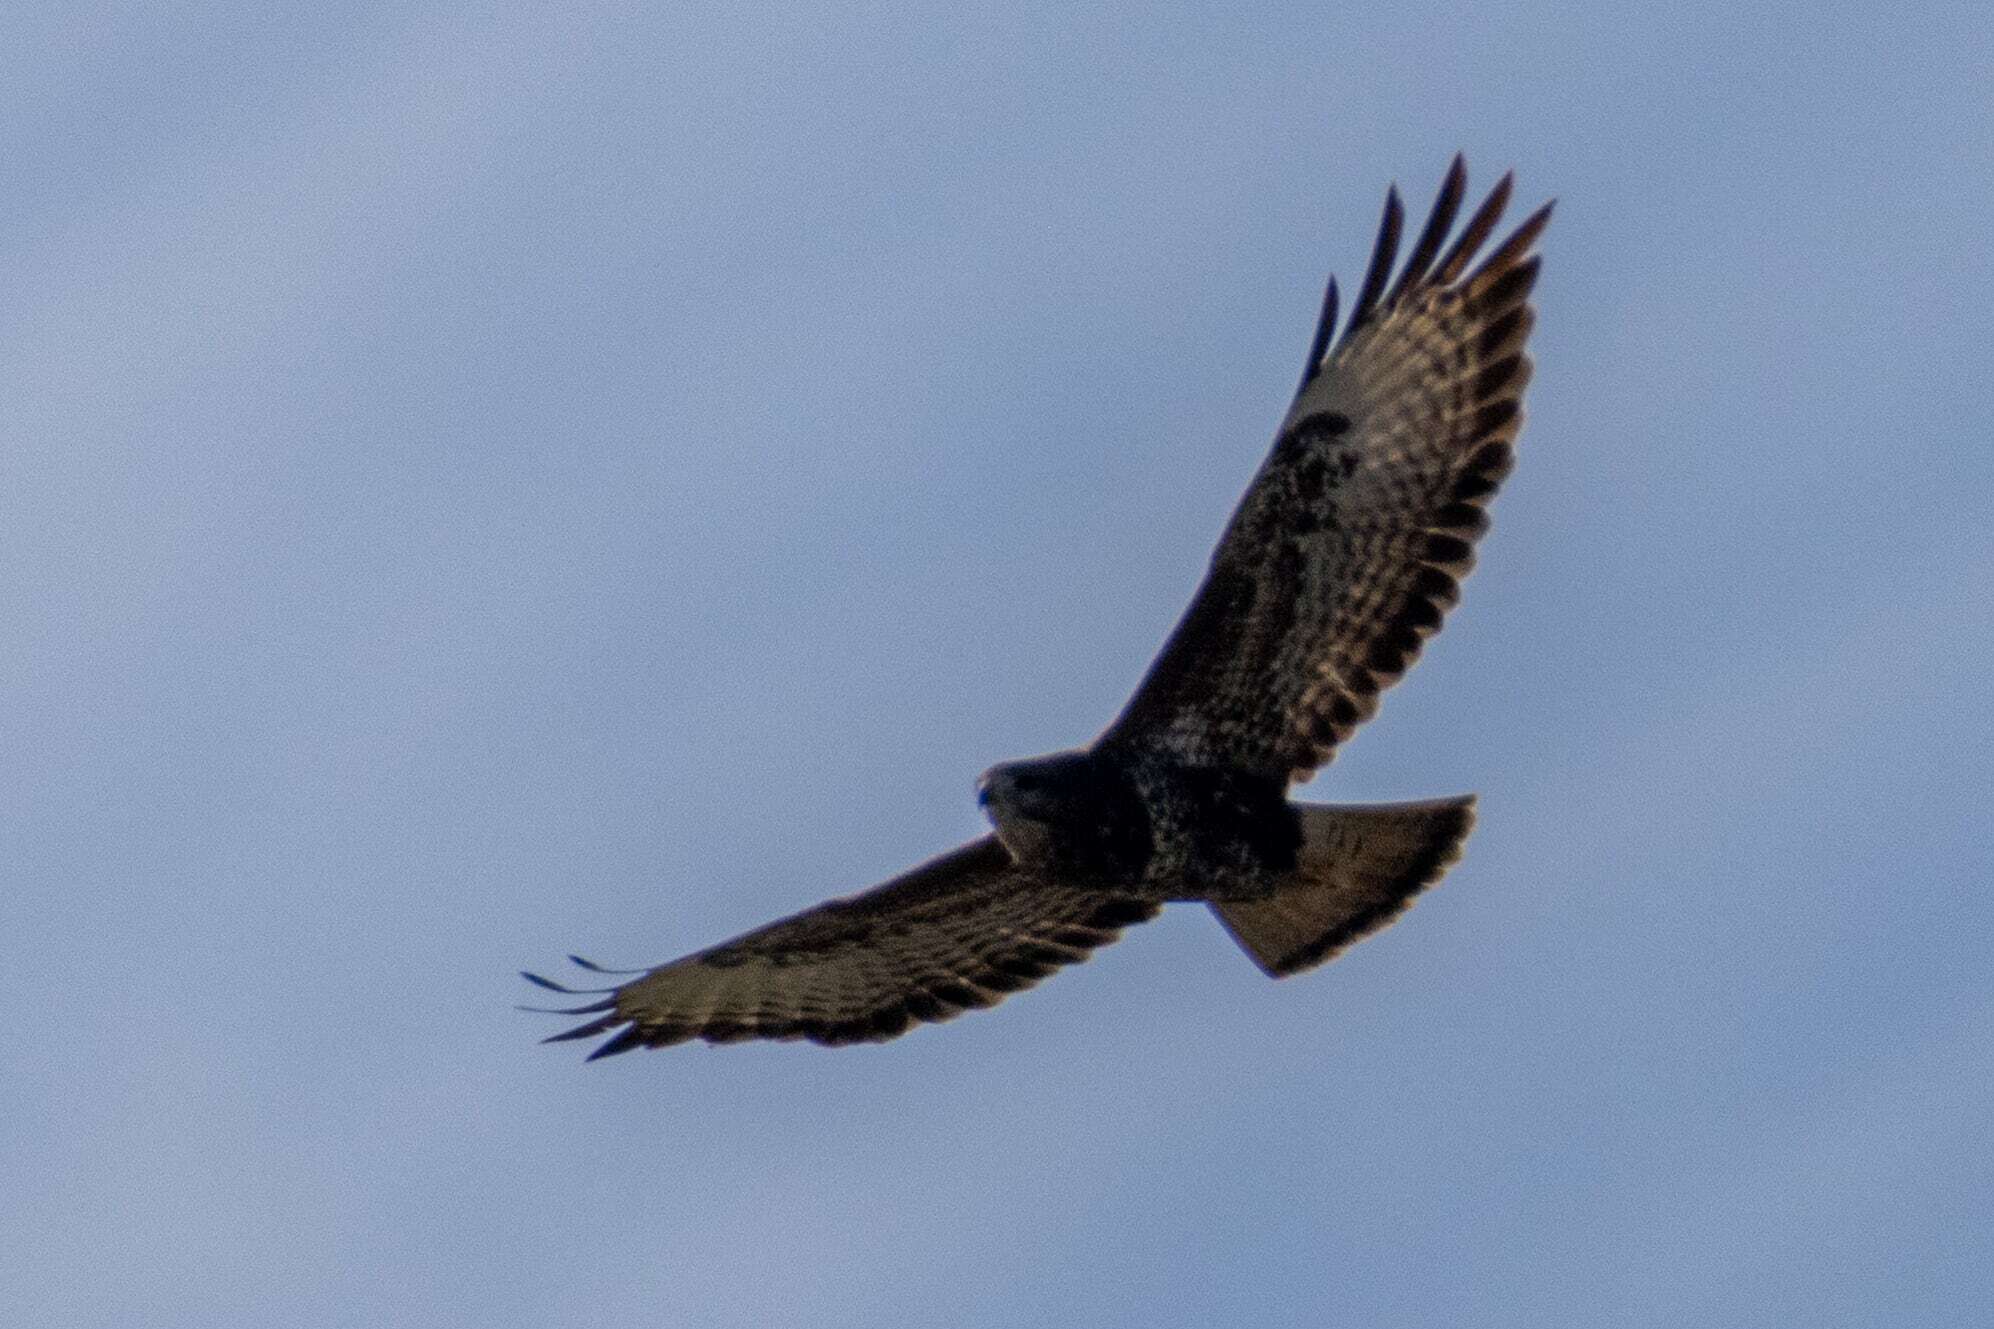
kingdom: Animalia
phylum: Chordata
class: Aves
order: Accipitriformes
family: Accipitridae
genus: Buteo
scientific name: Buteo buteo
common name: Common buzzard
